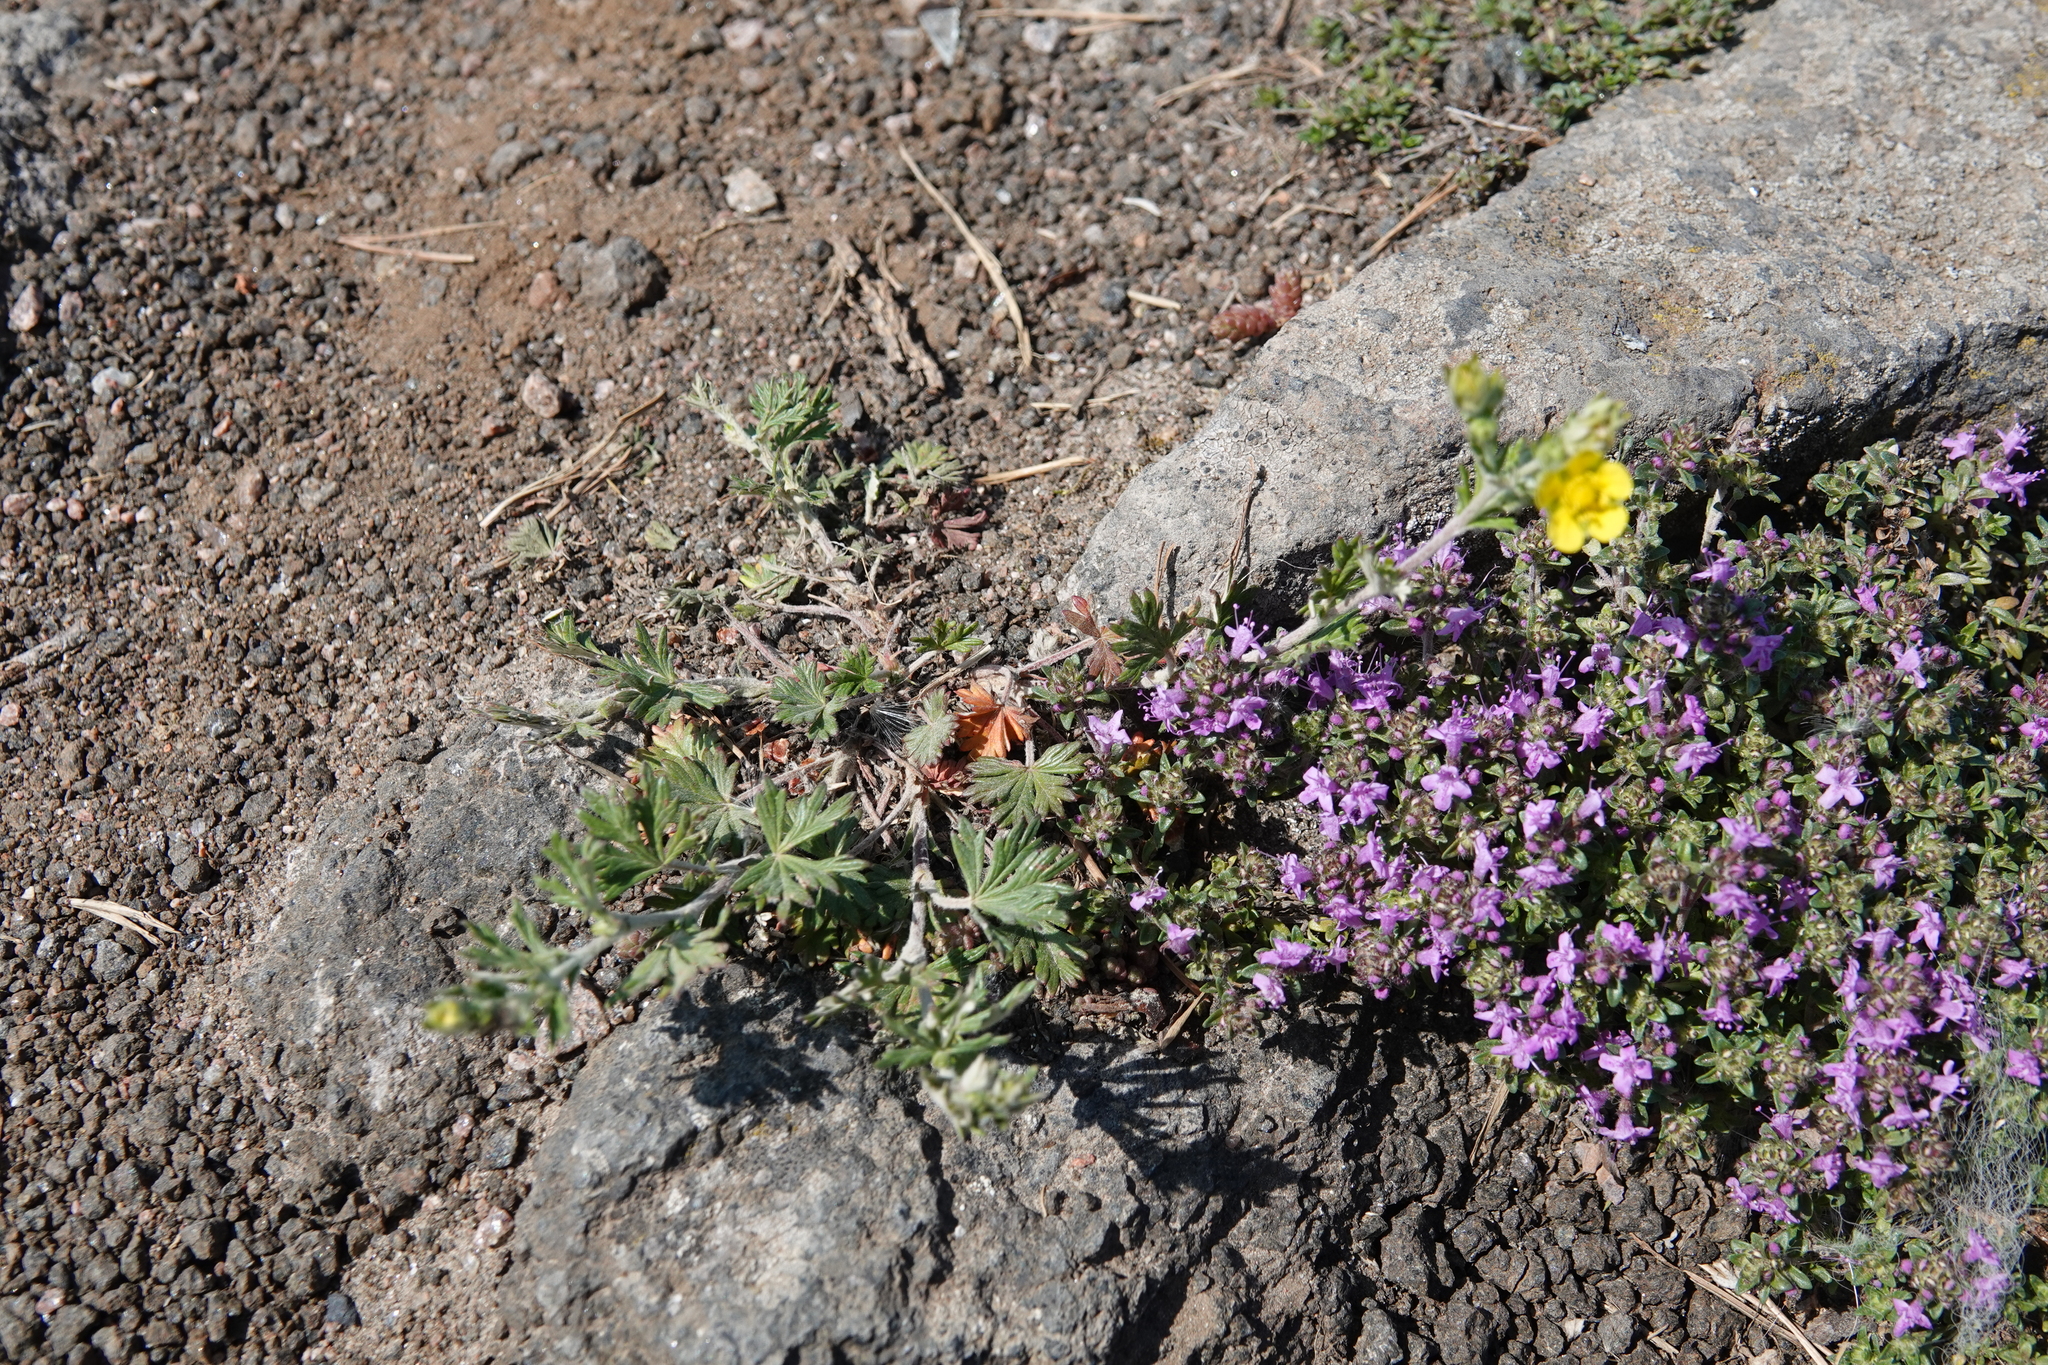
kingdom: Plantae
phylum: Tracheophyta
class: Magnoliopsida
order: Rosales
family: Rosaceae
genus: Potentilla
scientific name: Potentilla argentea
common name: Hoary cinquefoil
